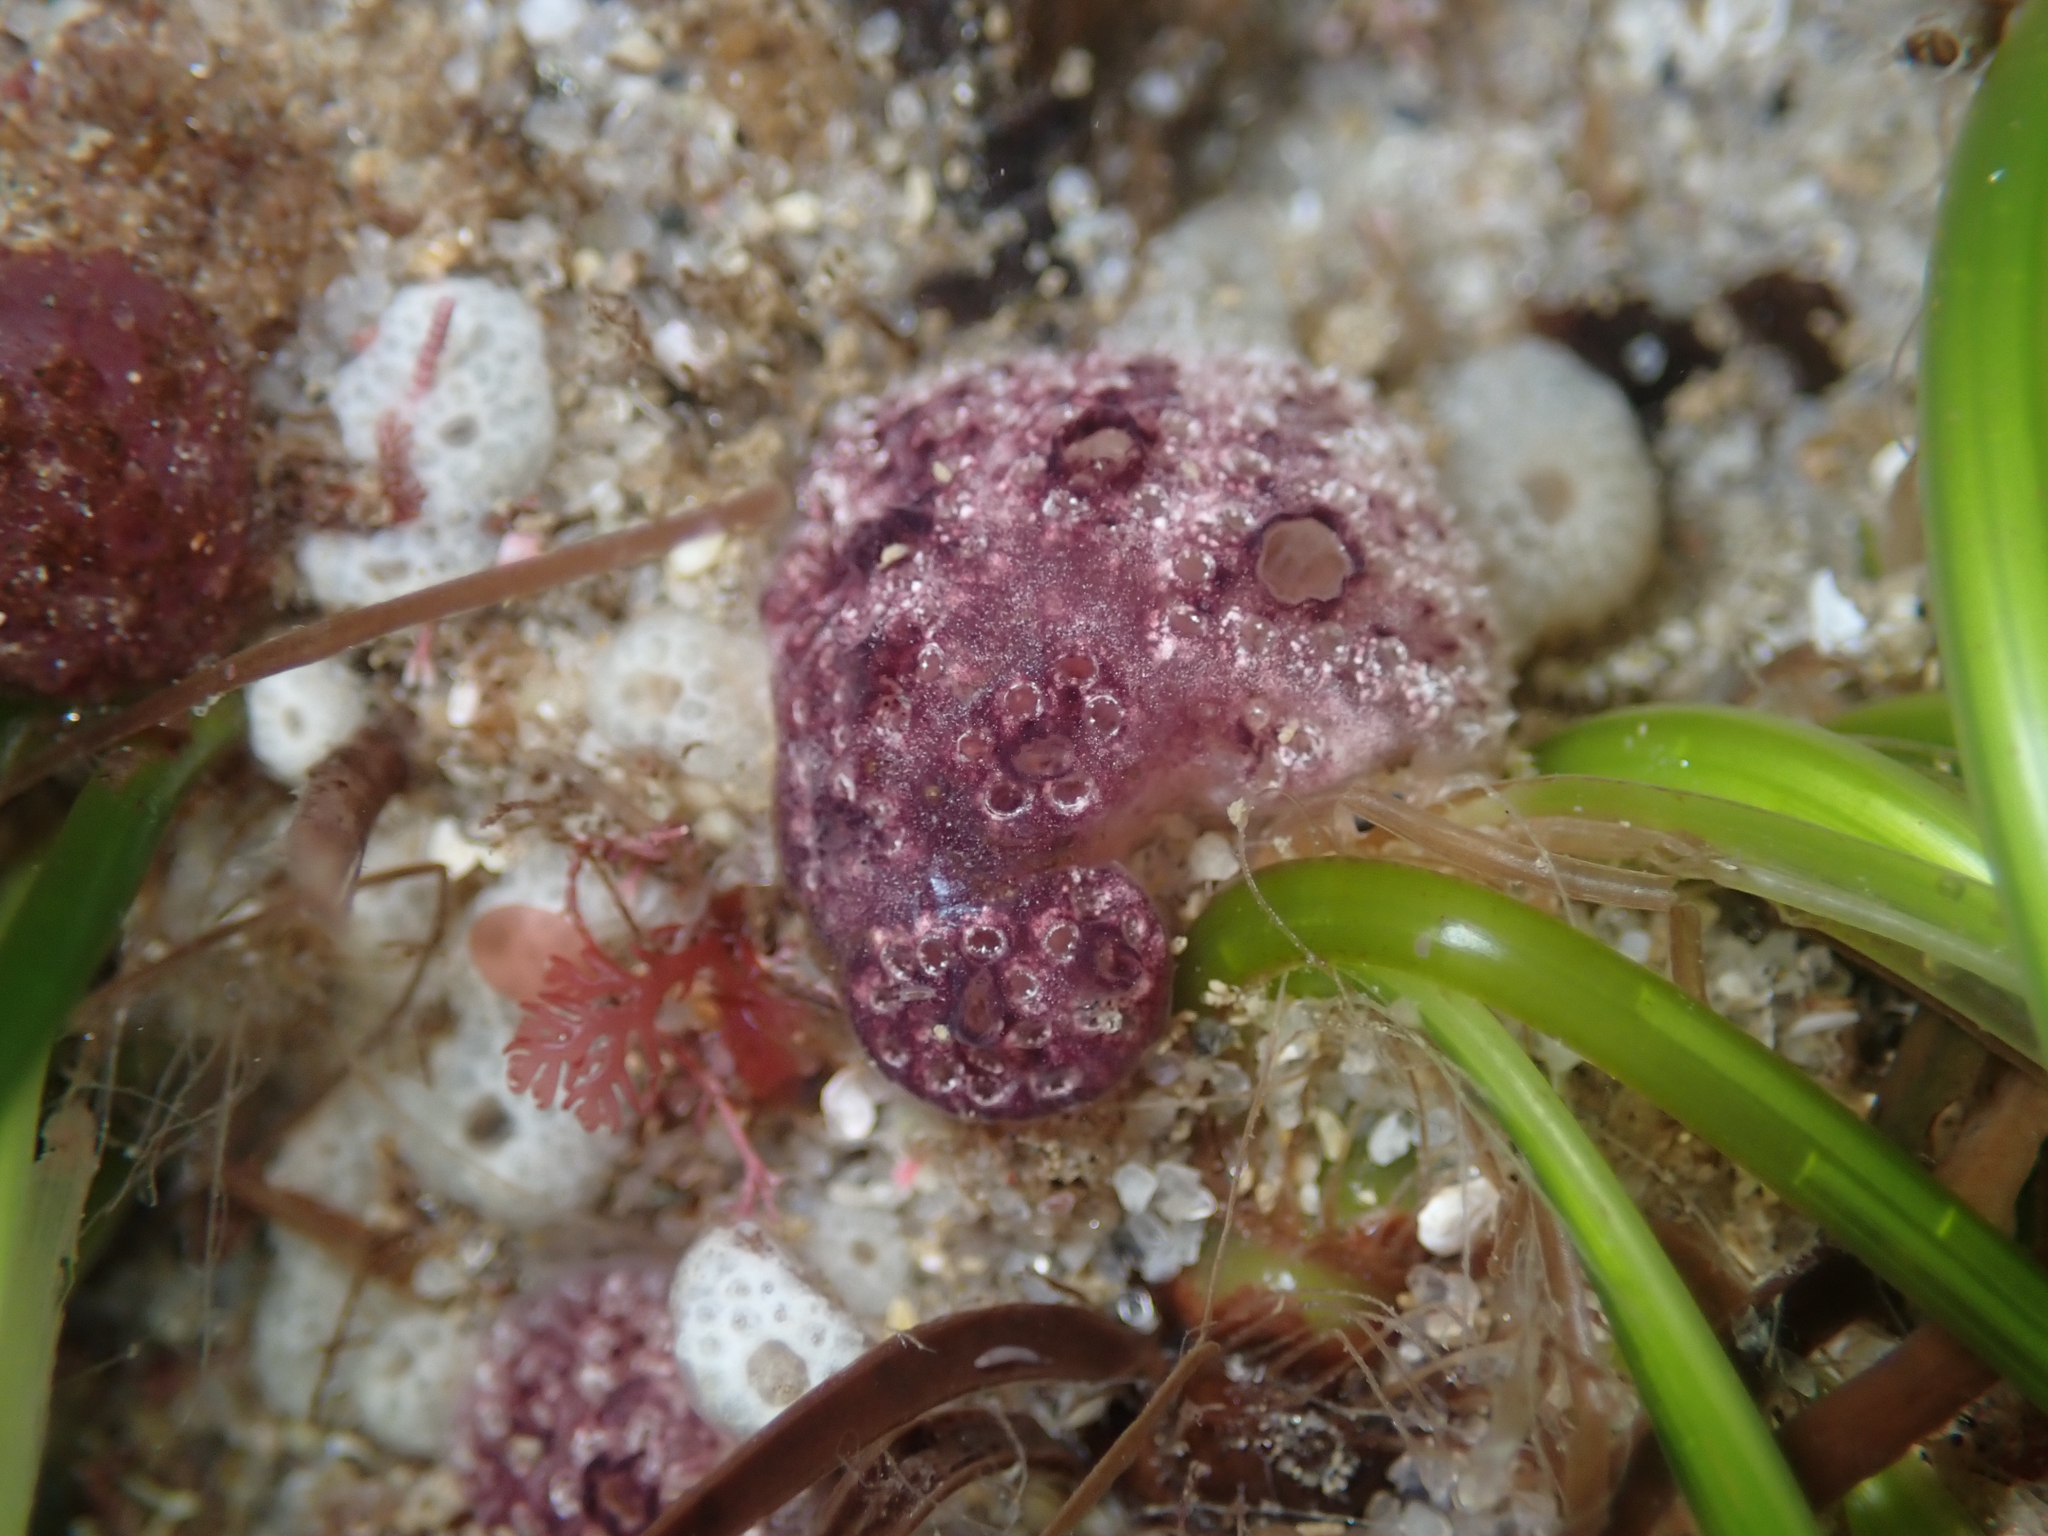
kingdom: Animalia
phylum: Chordata
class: Ascidiacea
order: Aplousobranchia
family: Holozoidae
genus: Distaplia
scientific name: Distaplia occidentalis
